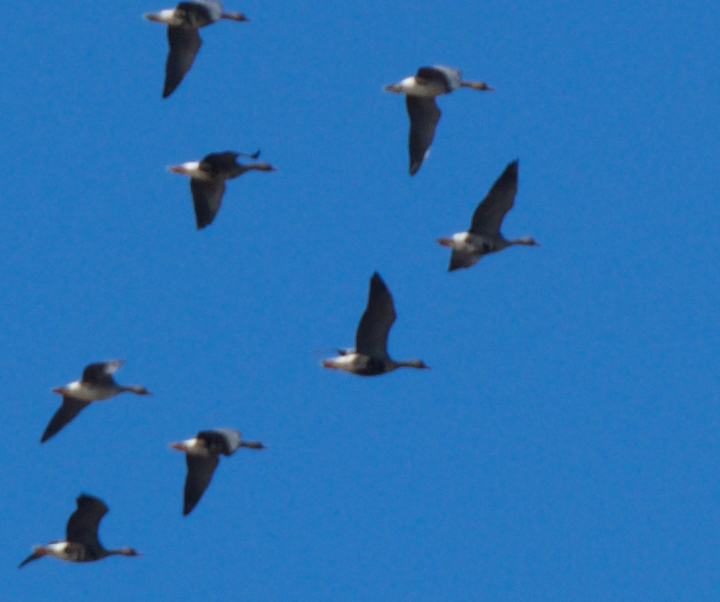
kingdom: Animalia
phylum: Chordata
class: Aves
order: Anseriformes
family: Anatidae
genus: Anser
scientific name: Anser albifrons
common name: Greater white-fronted goose
